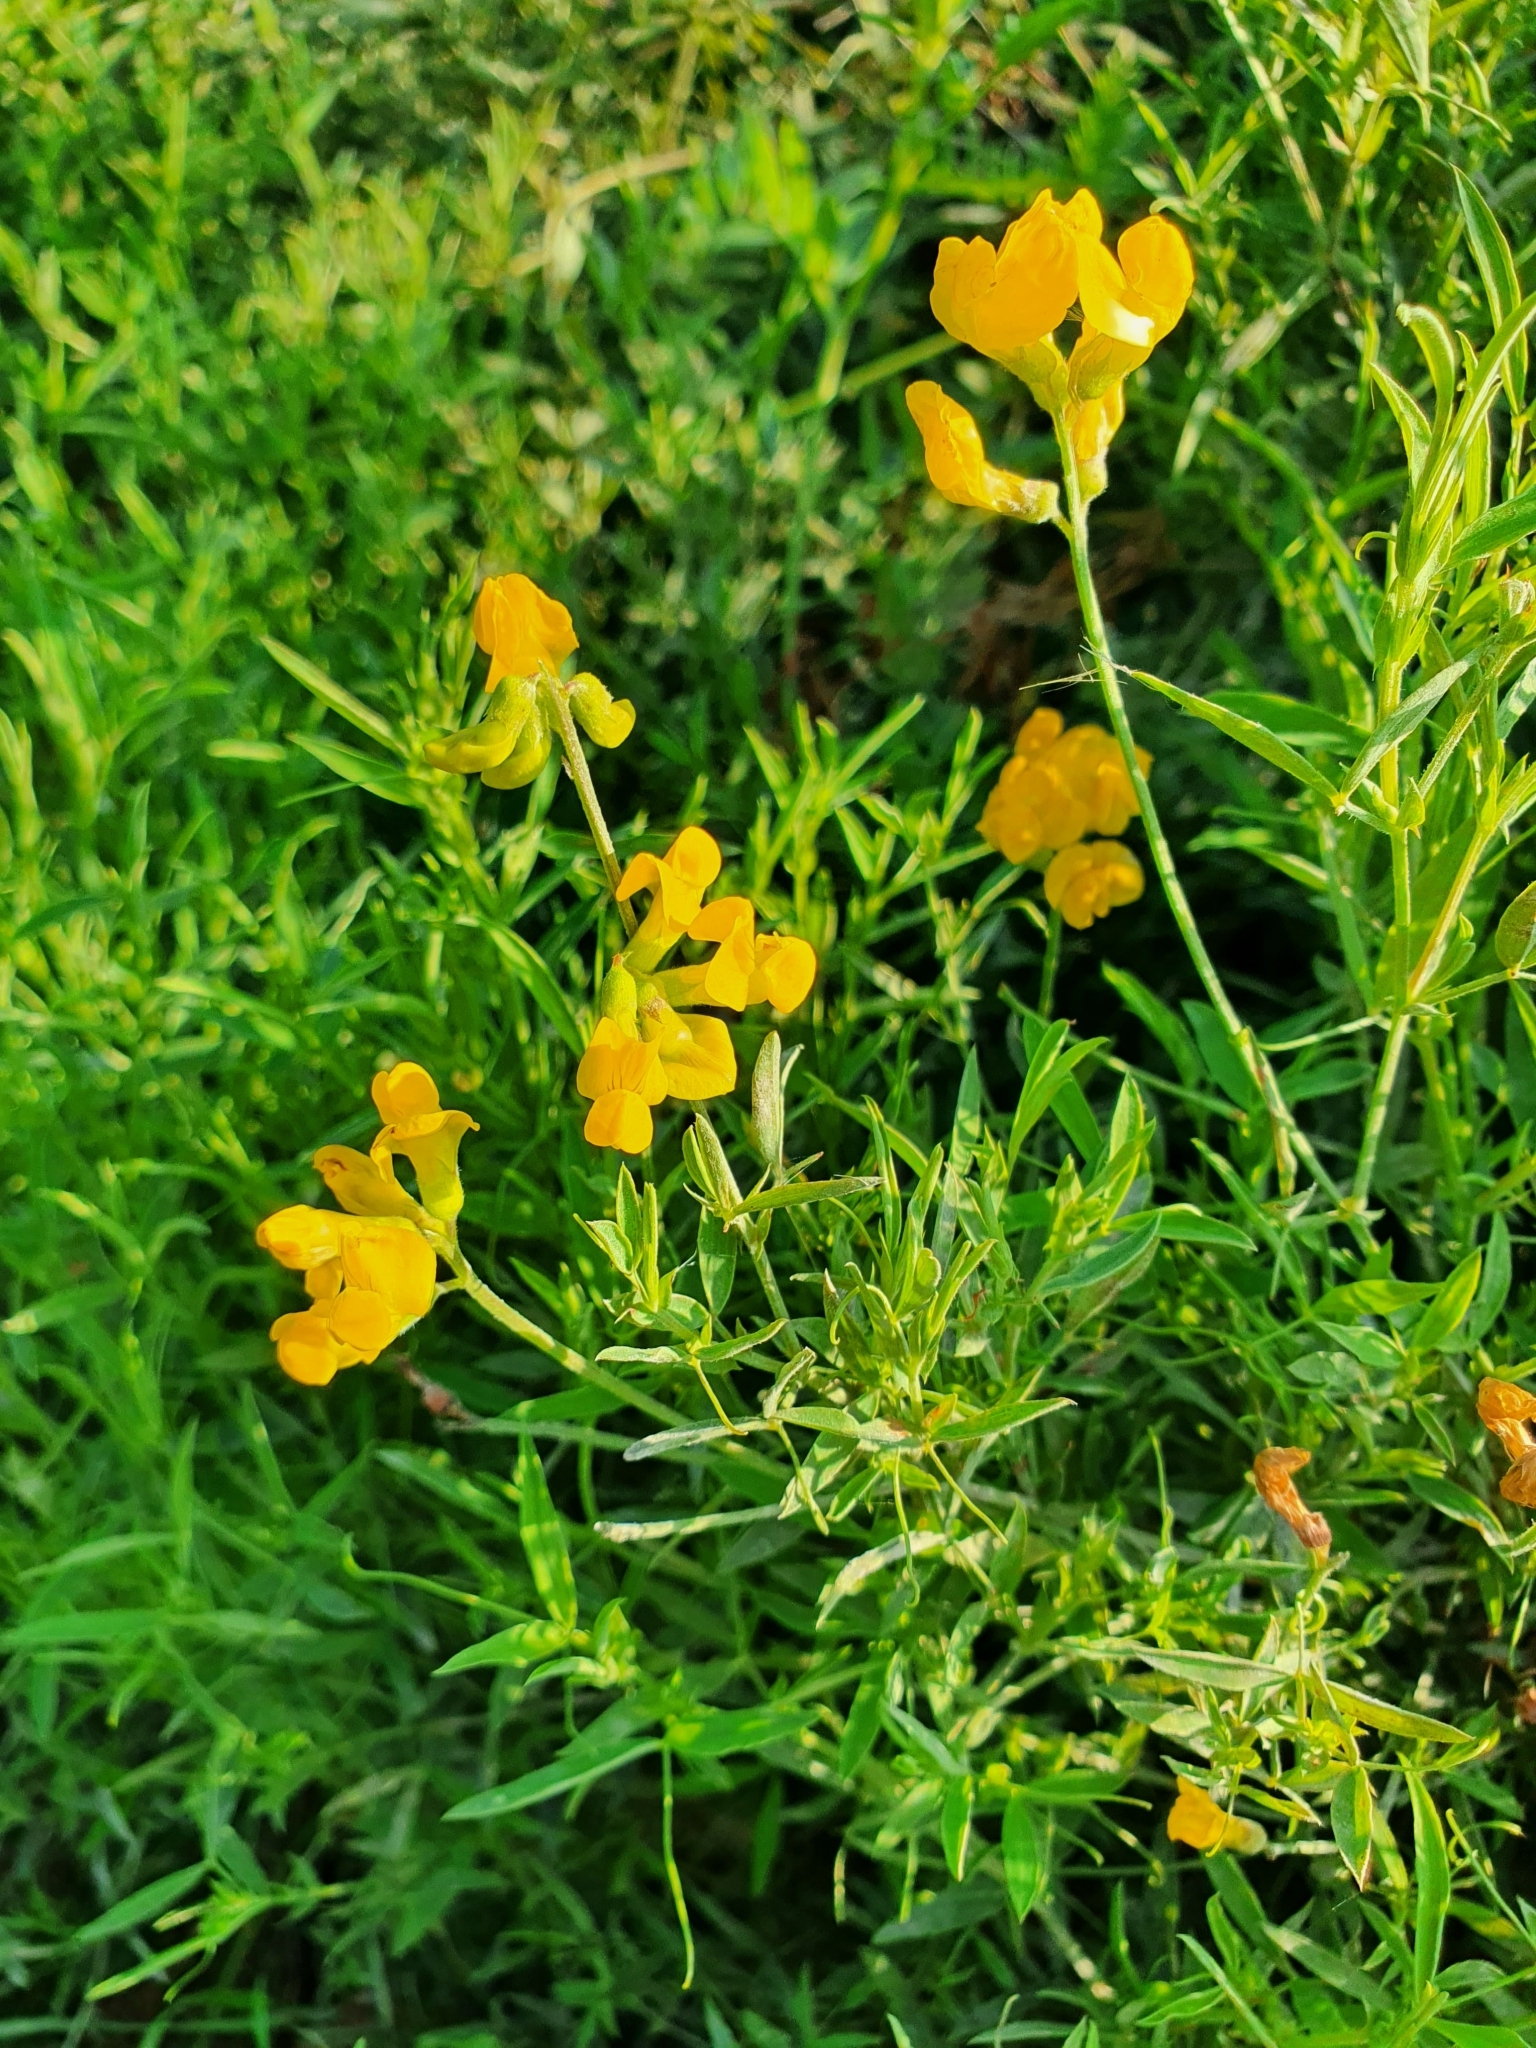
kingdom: Plantae
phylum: Tracheophyta
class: Magnoliopsida
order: Fabales
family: Fabaceae
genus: Lathyrus
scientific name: Lathyrus pratensis
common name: Meadow vetchling
